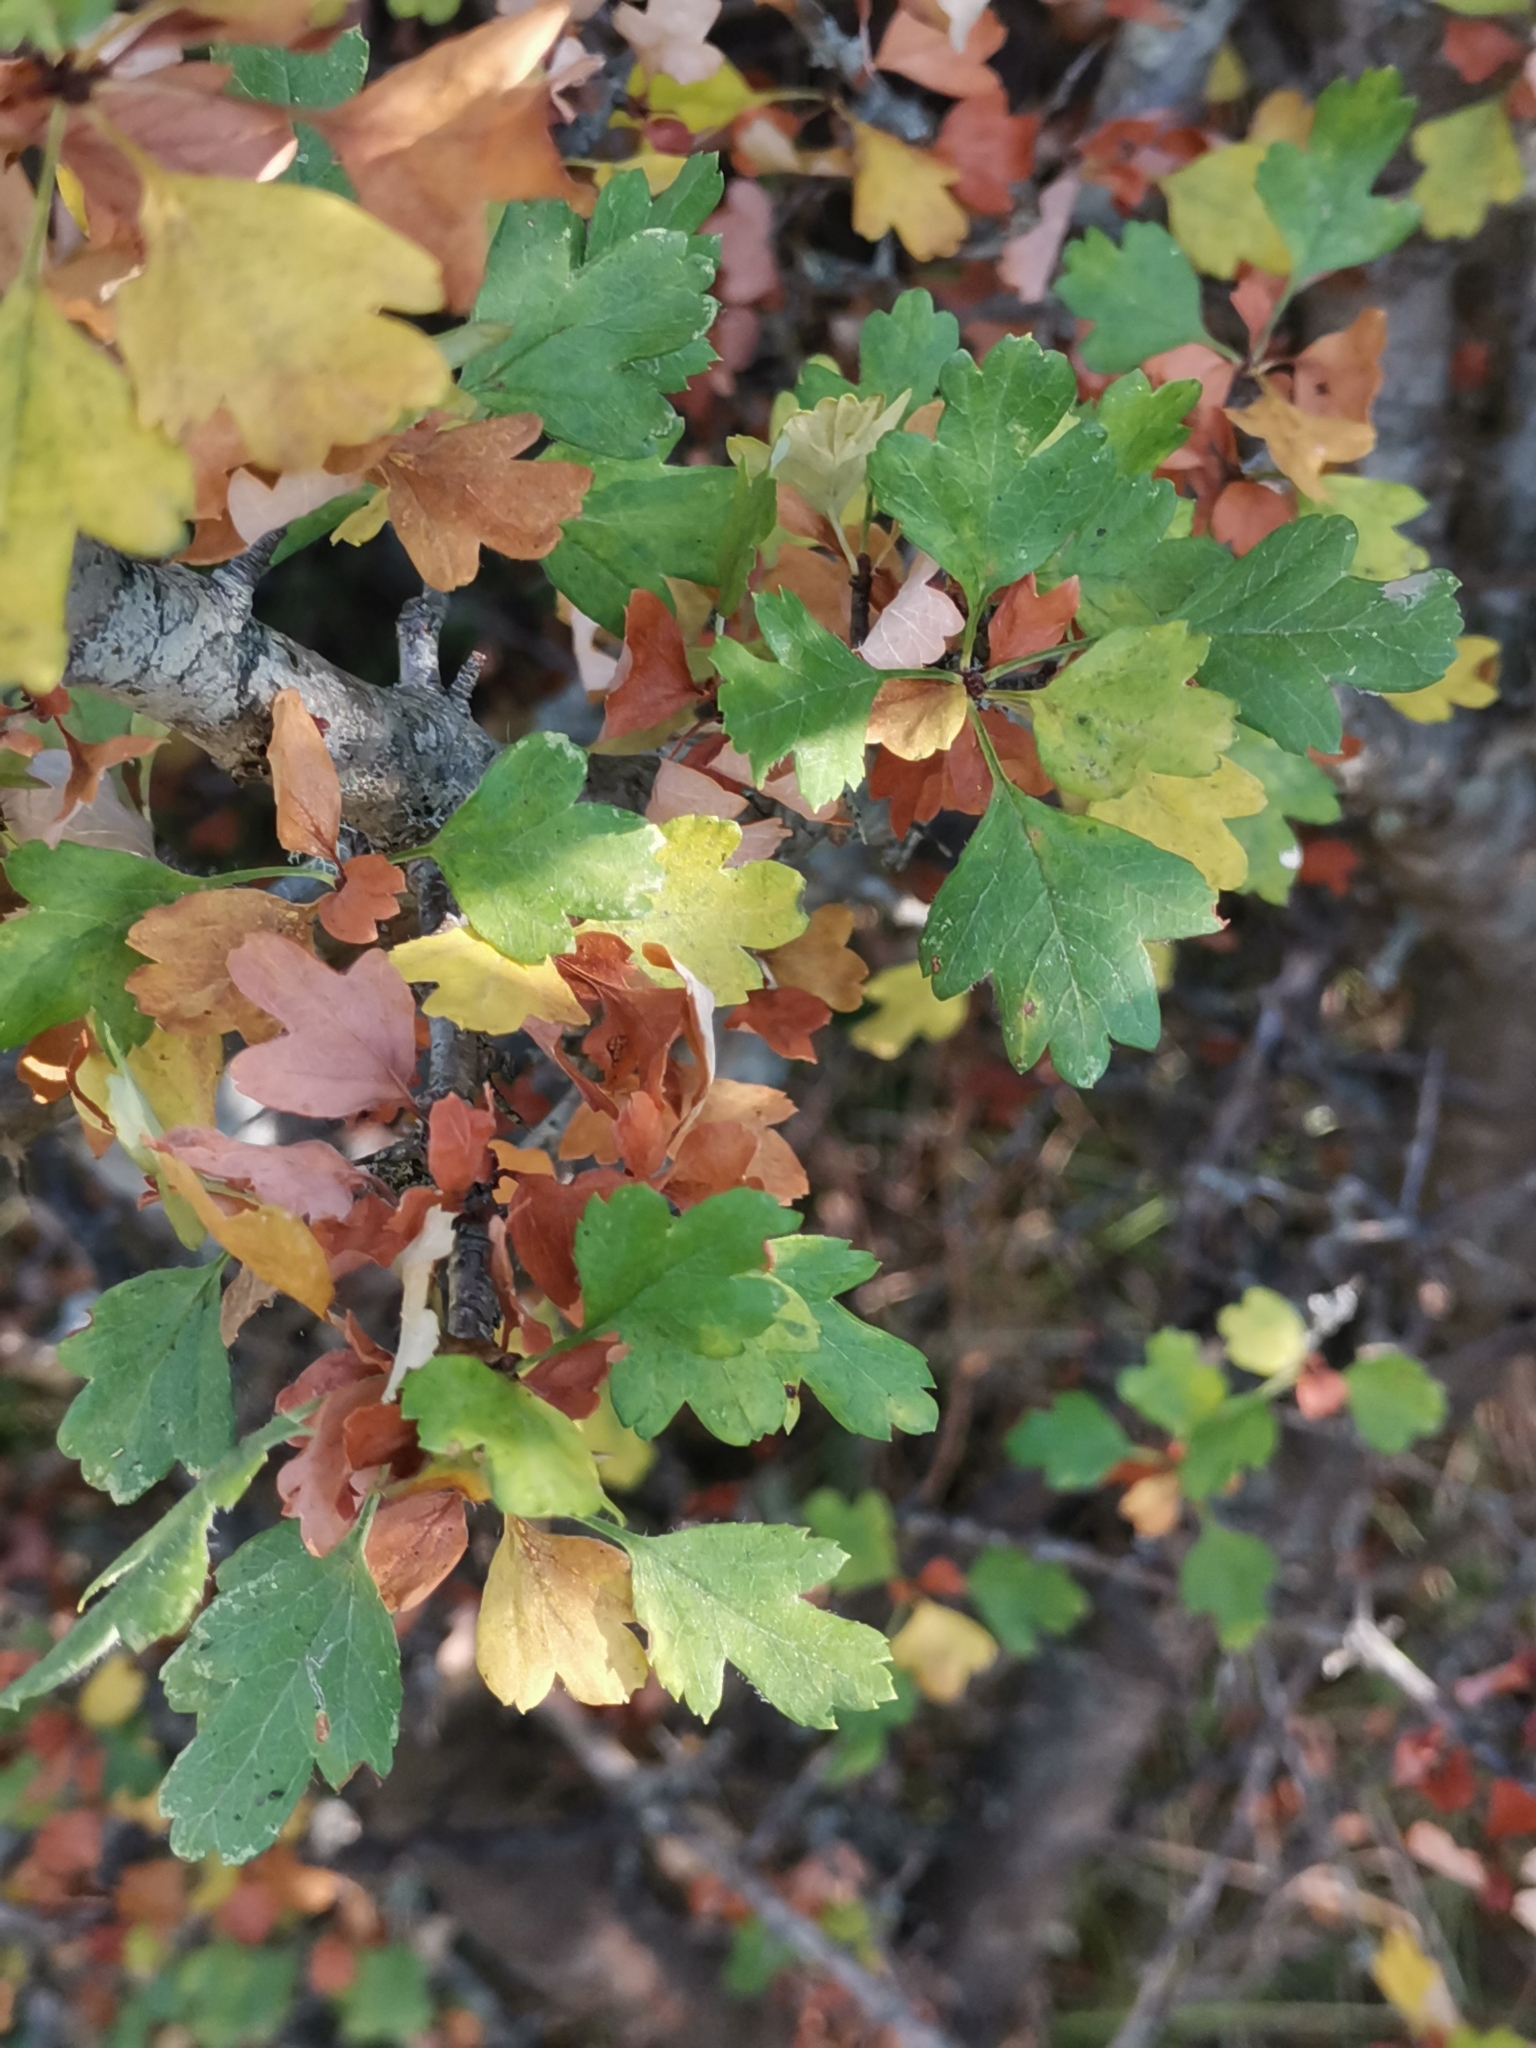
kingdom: Plantae
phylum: Tracheophyta
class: Magnoliopsida
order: Rosales
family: Rosaceae
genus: Crataegus
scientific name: Crataegus monogyna
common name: Hawthorn
